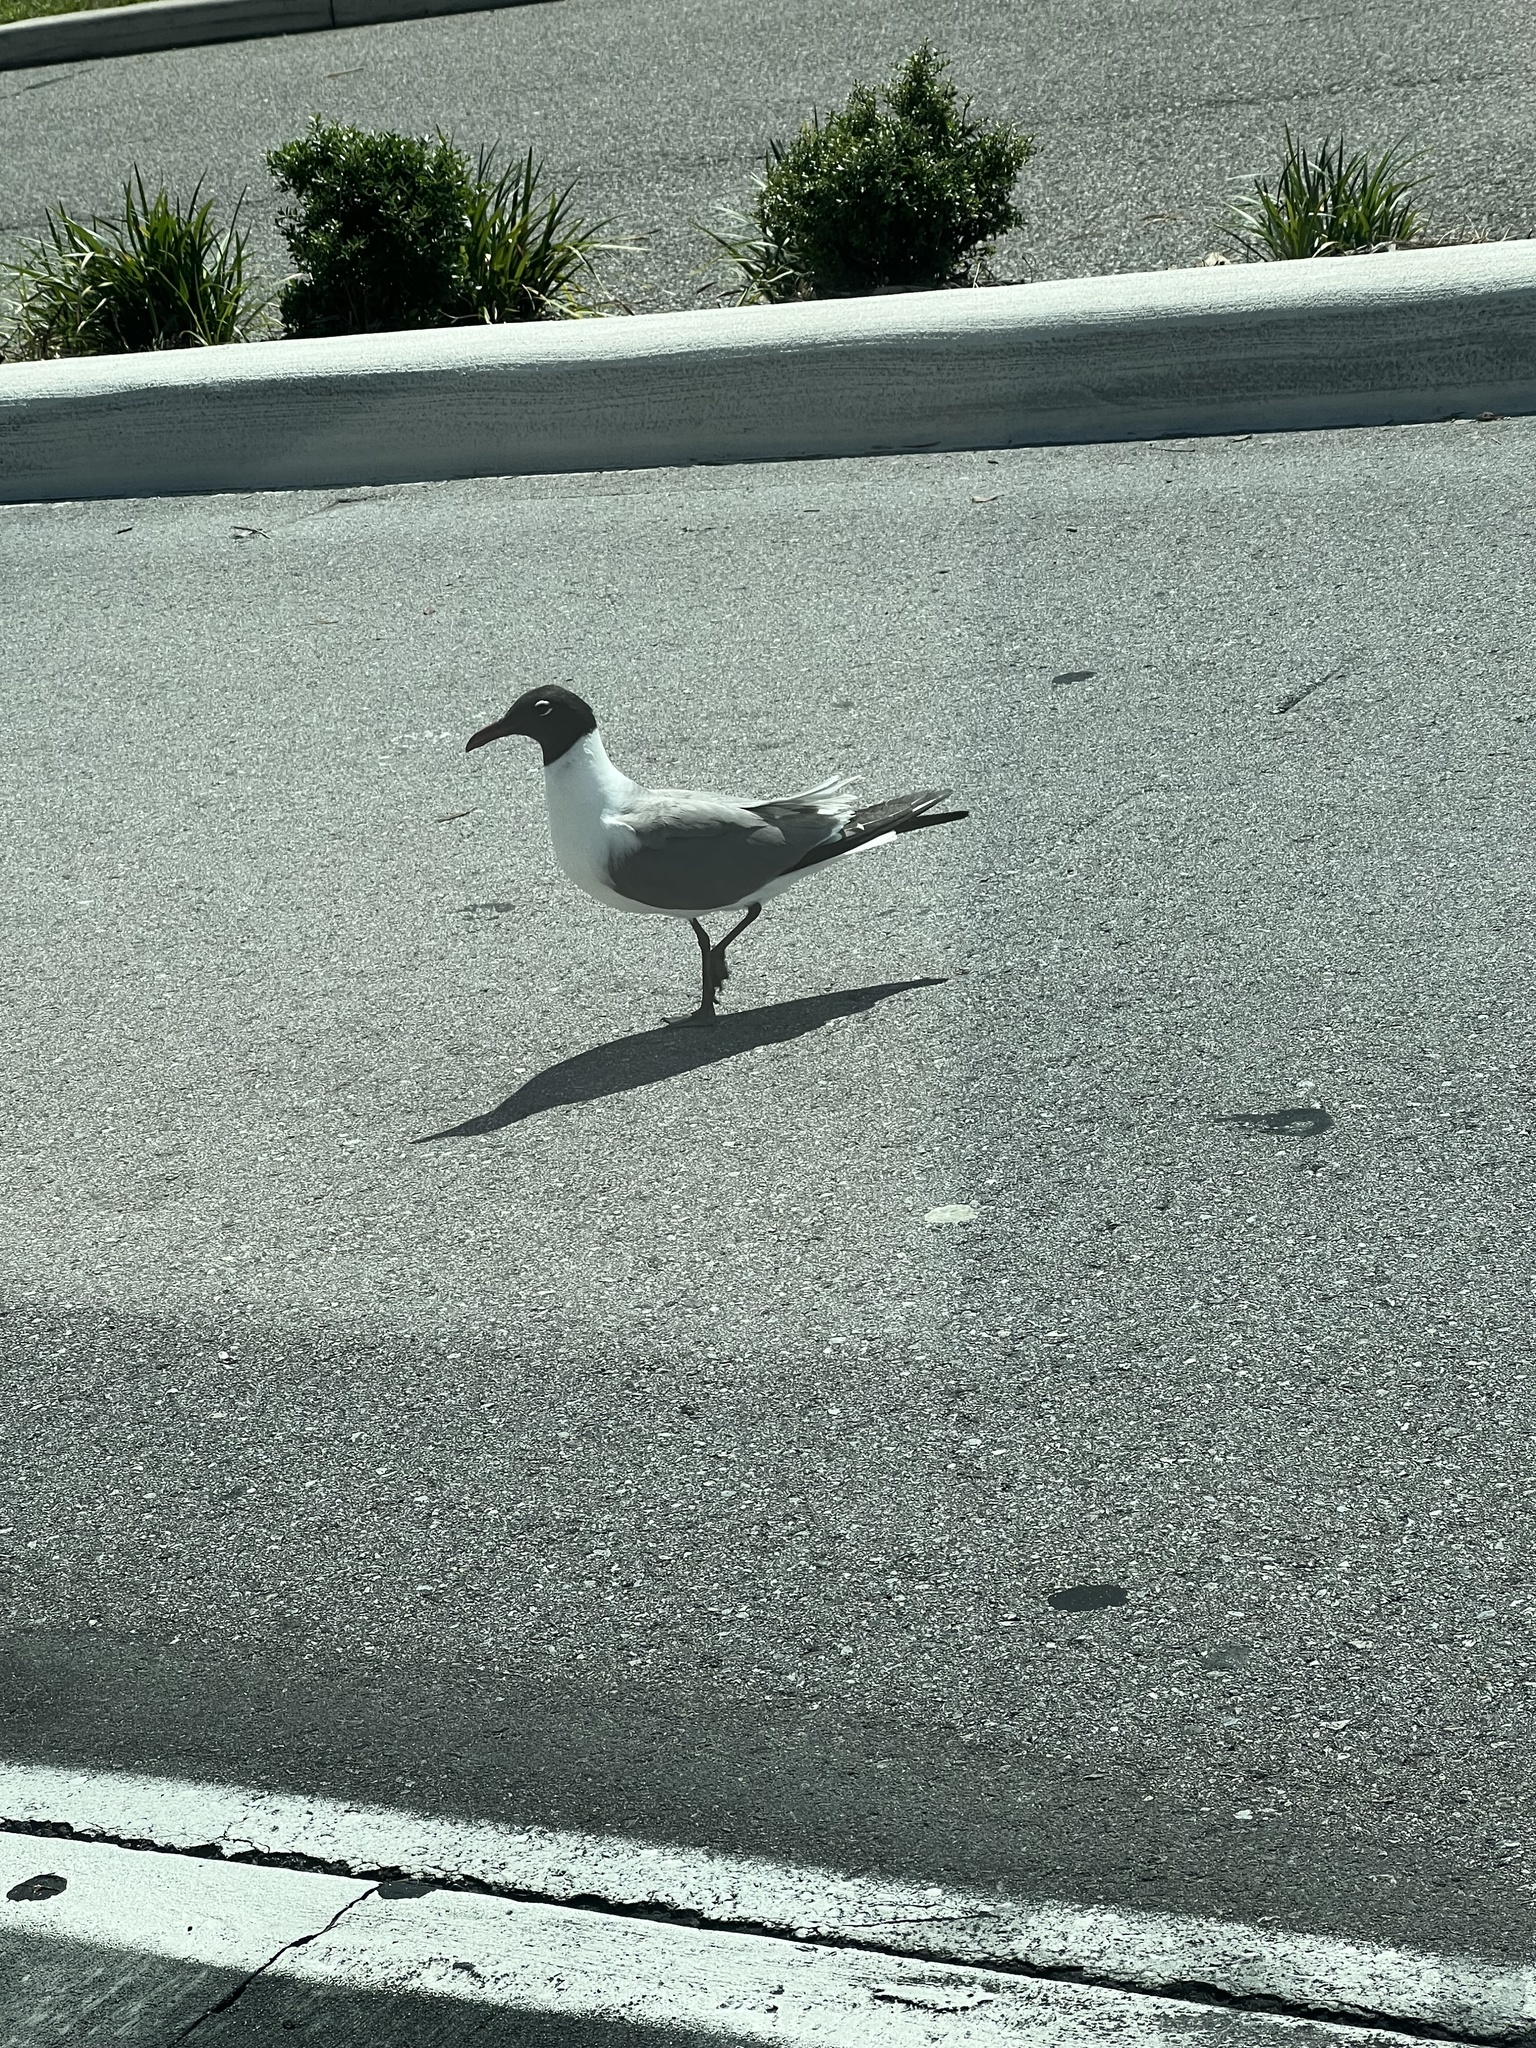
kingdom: Animalia
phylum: Chordata
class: Aves
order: Charadriiformes
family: Laridae
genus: Leucophaeus
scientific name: Leucophaeus atricilla
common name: Laughing gull
